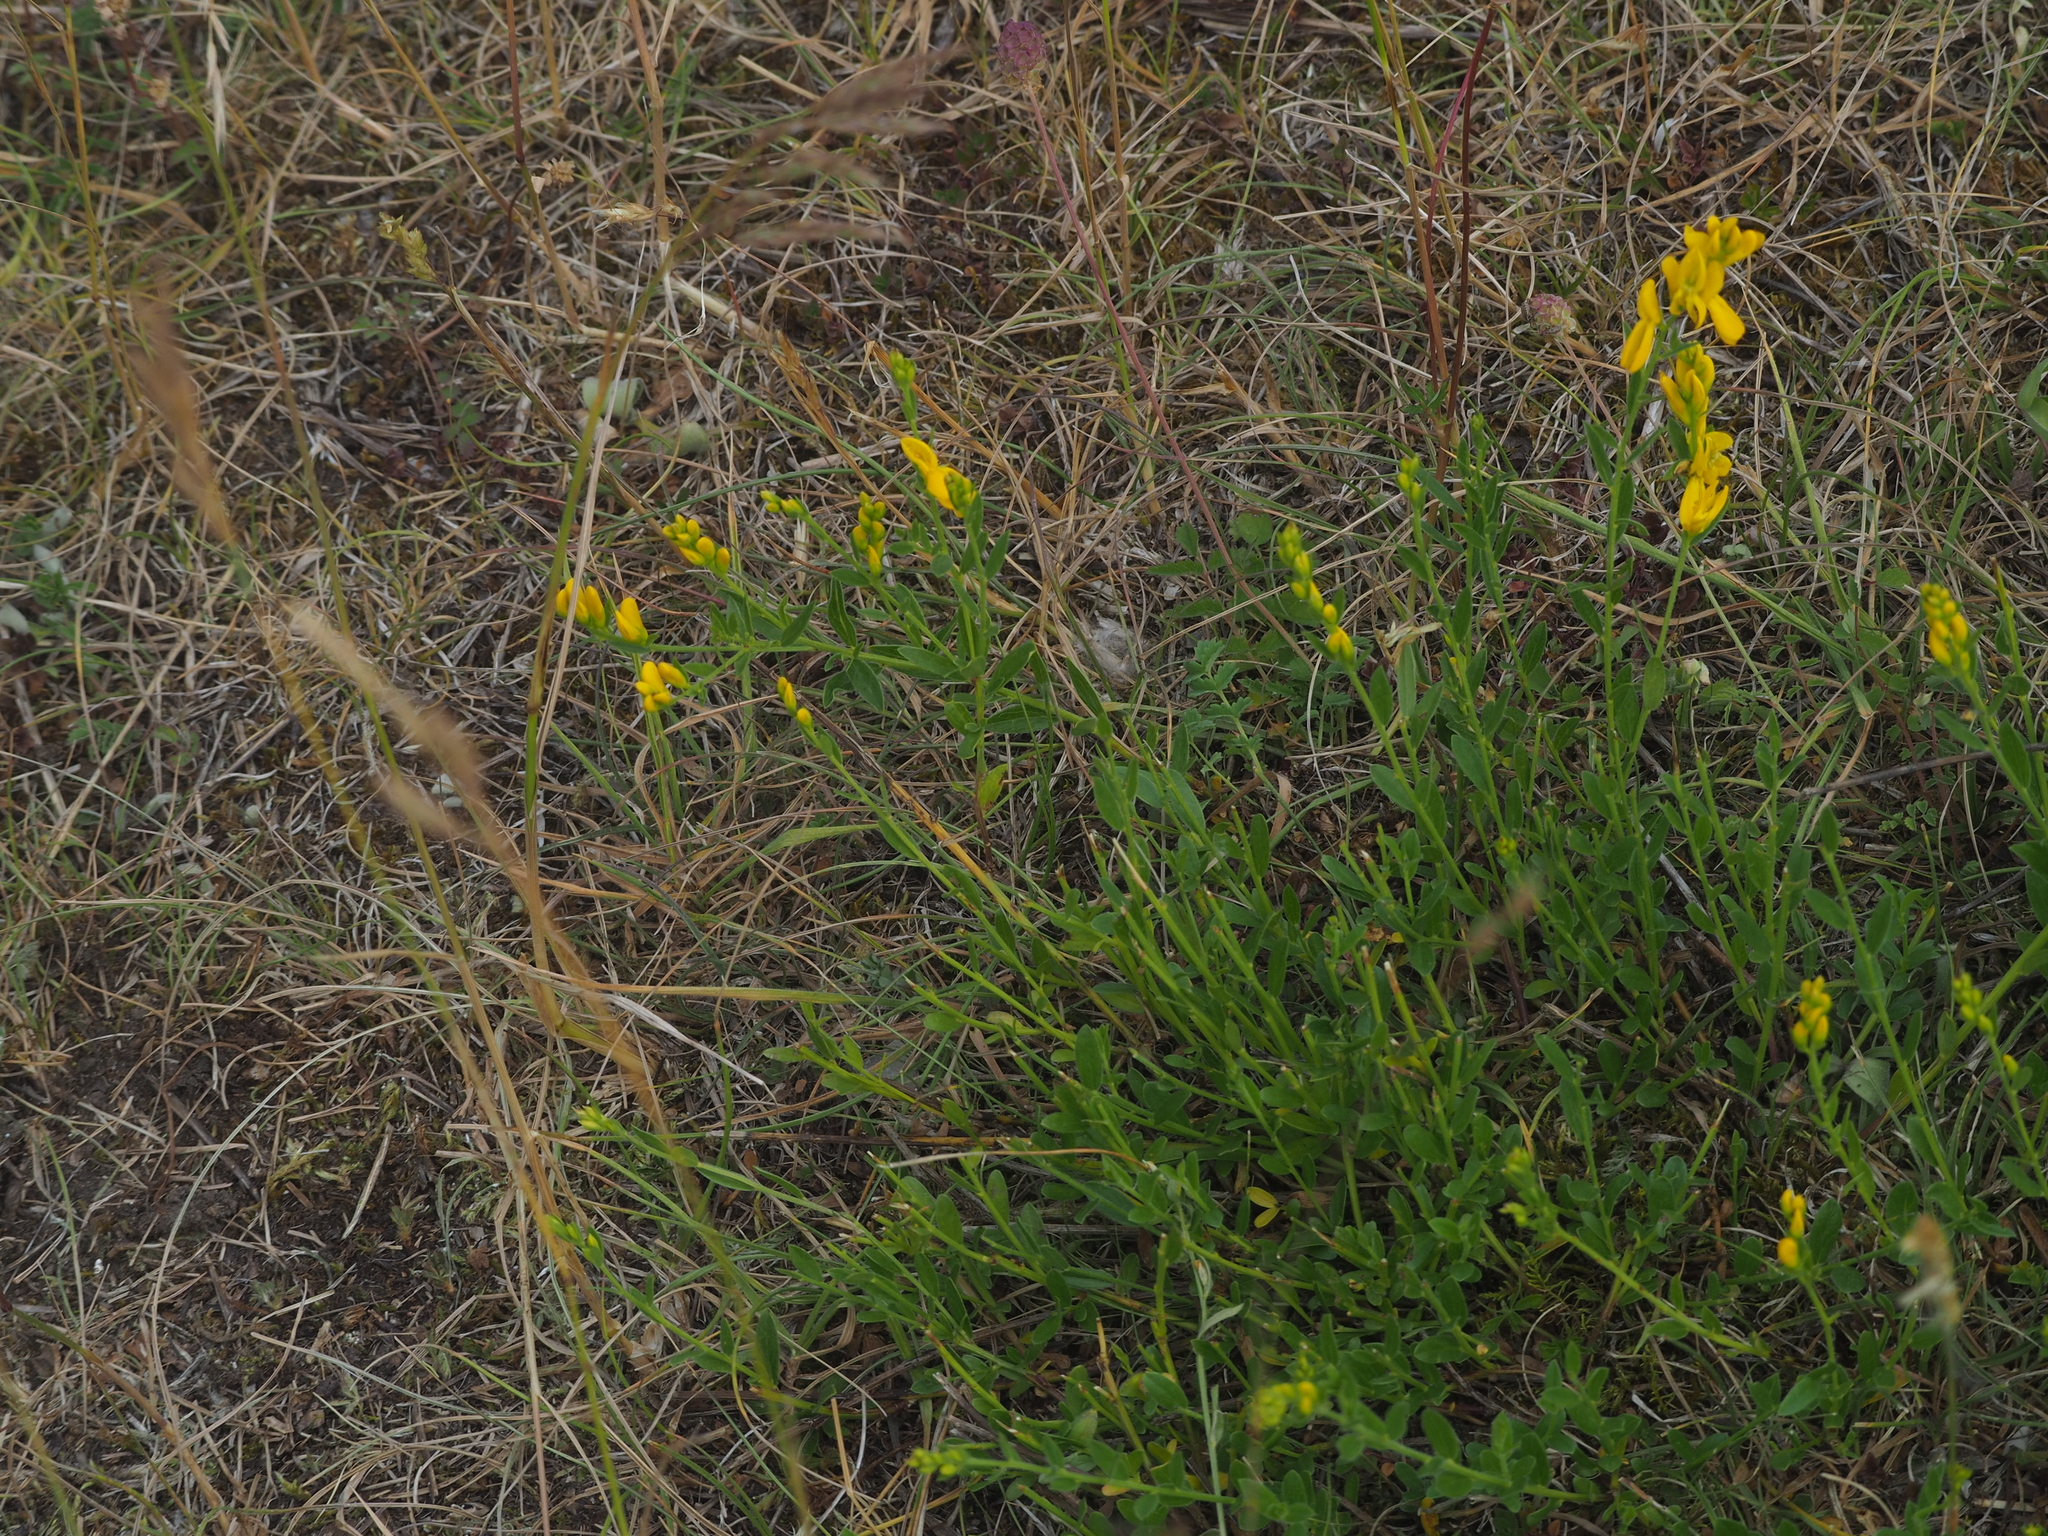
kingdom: Plantae
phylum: Tracheophyta
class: Magnoliopsida
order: Fabales
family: Fabaceae
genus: Genista
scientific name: Genista tinctoria
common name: Dyer's greenweed
